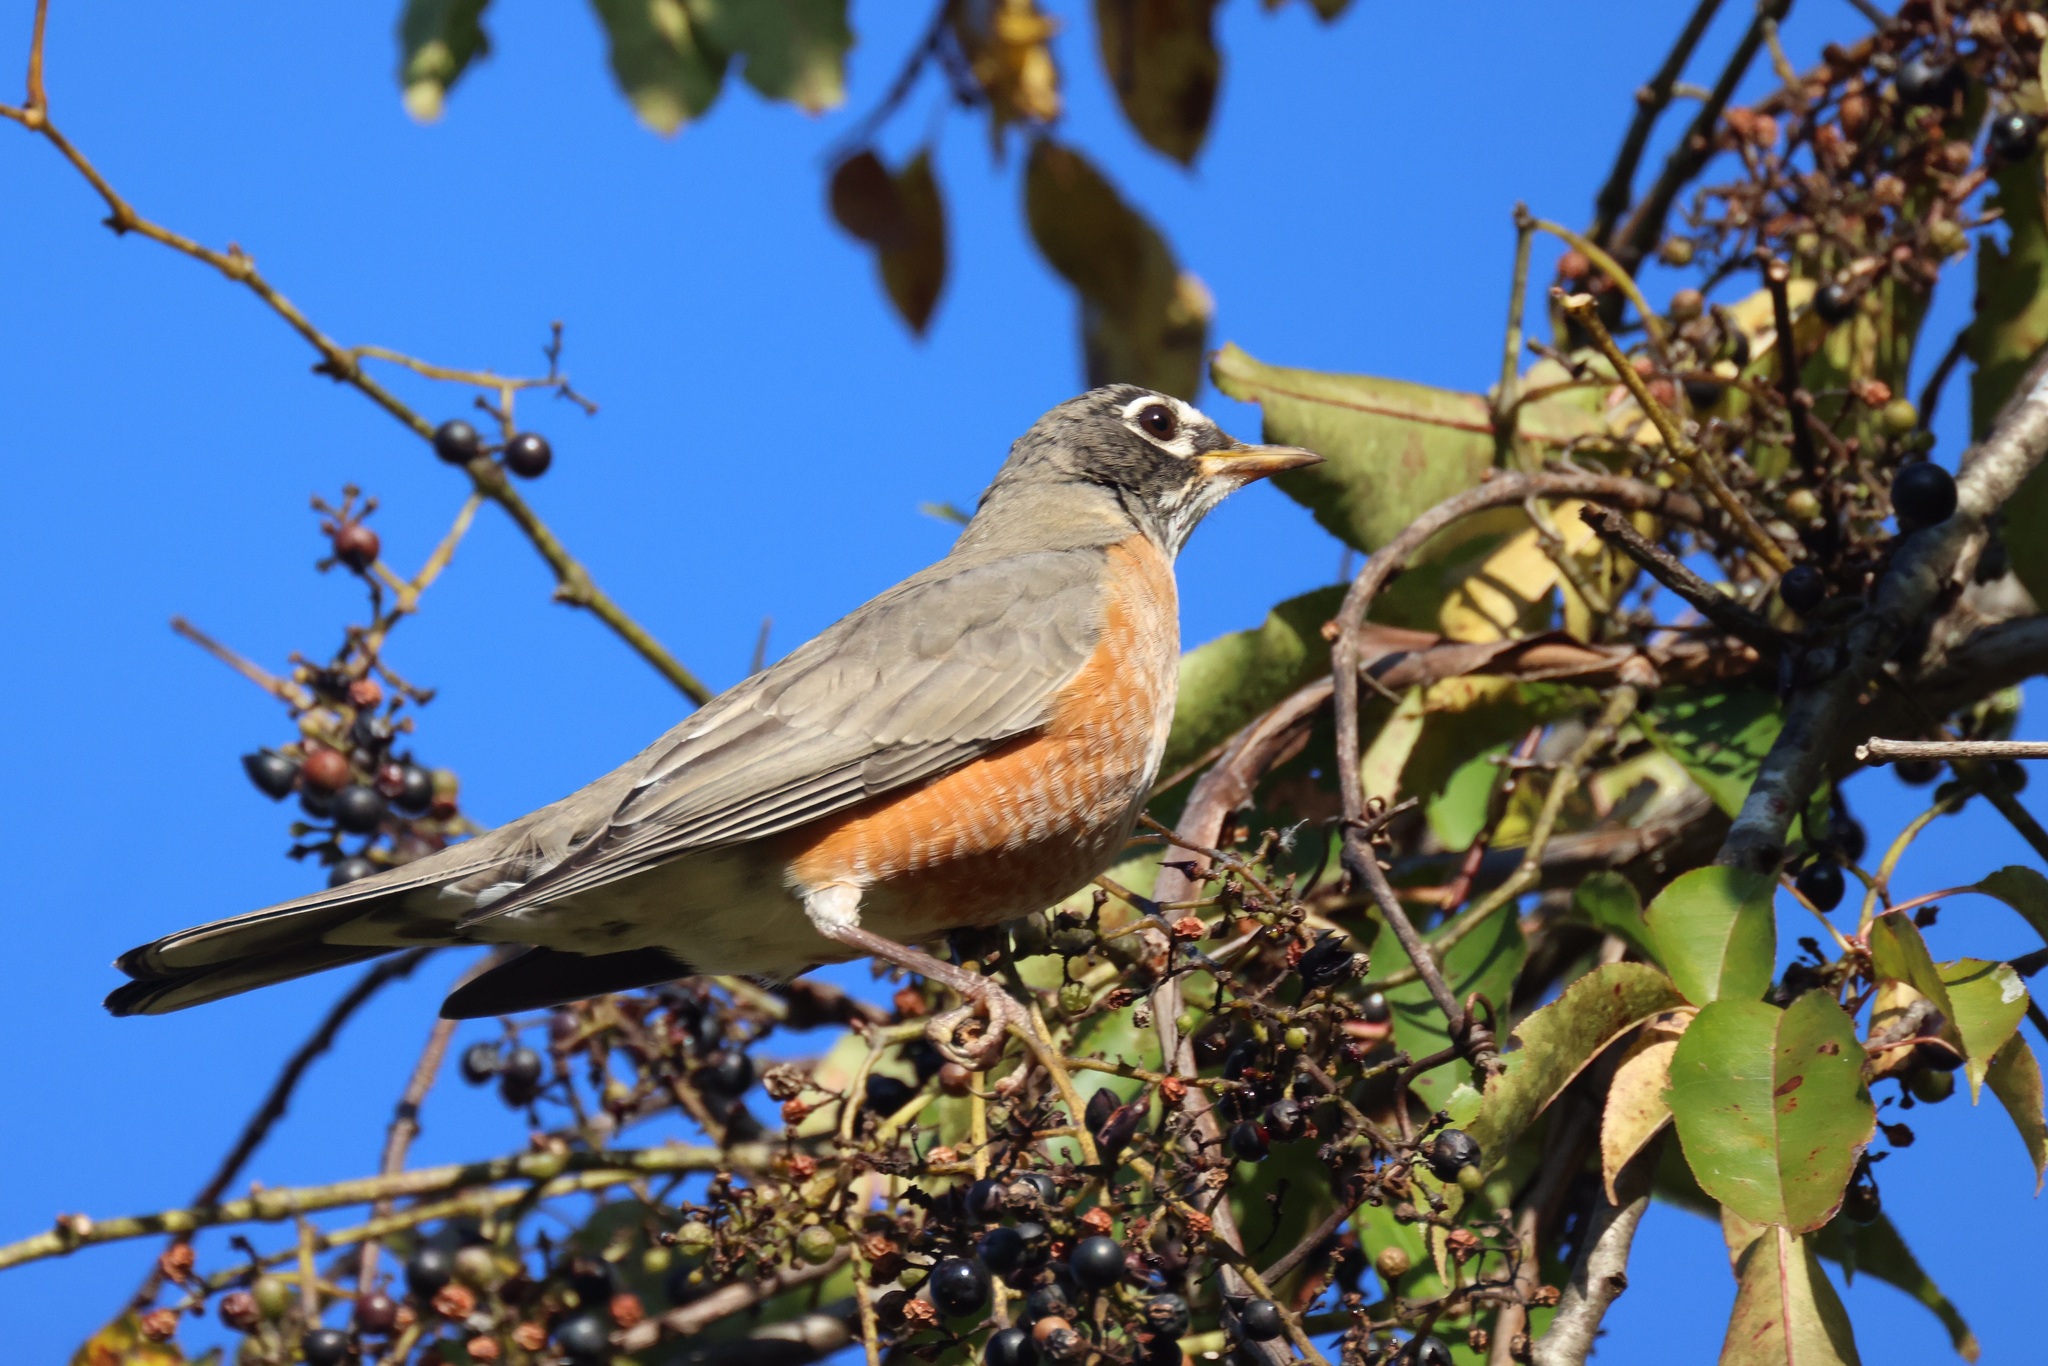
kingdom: Animalia
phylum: Chordata
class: Aves
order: Passeriformes
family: Turdidae
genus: Turdus
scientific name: Turdus migratorius
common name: American robin
